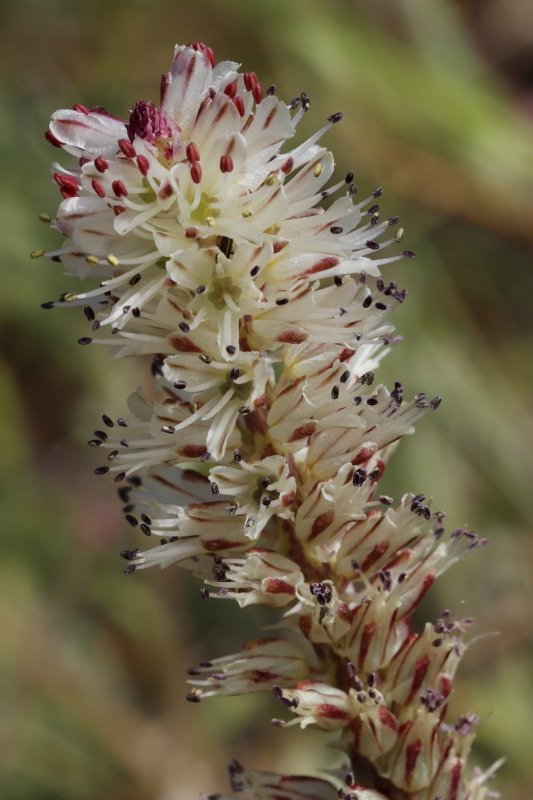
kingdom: Plantae
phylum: Tracheophyta
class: Liliopsida
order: Asparagales
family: Asparagaceae
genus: Lachenalia
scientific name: Lachenalia orthopetala
